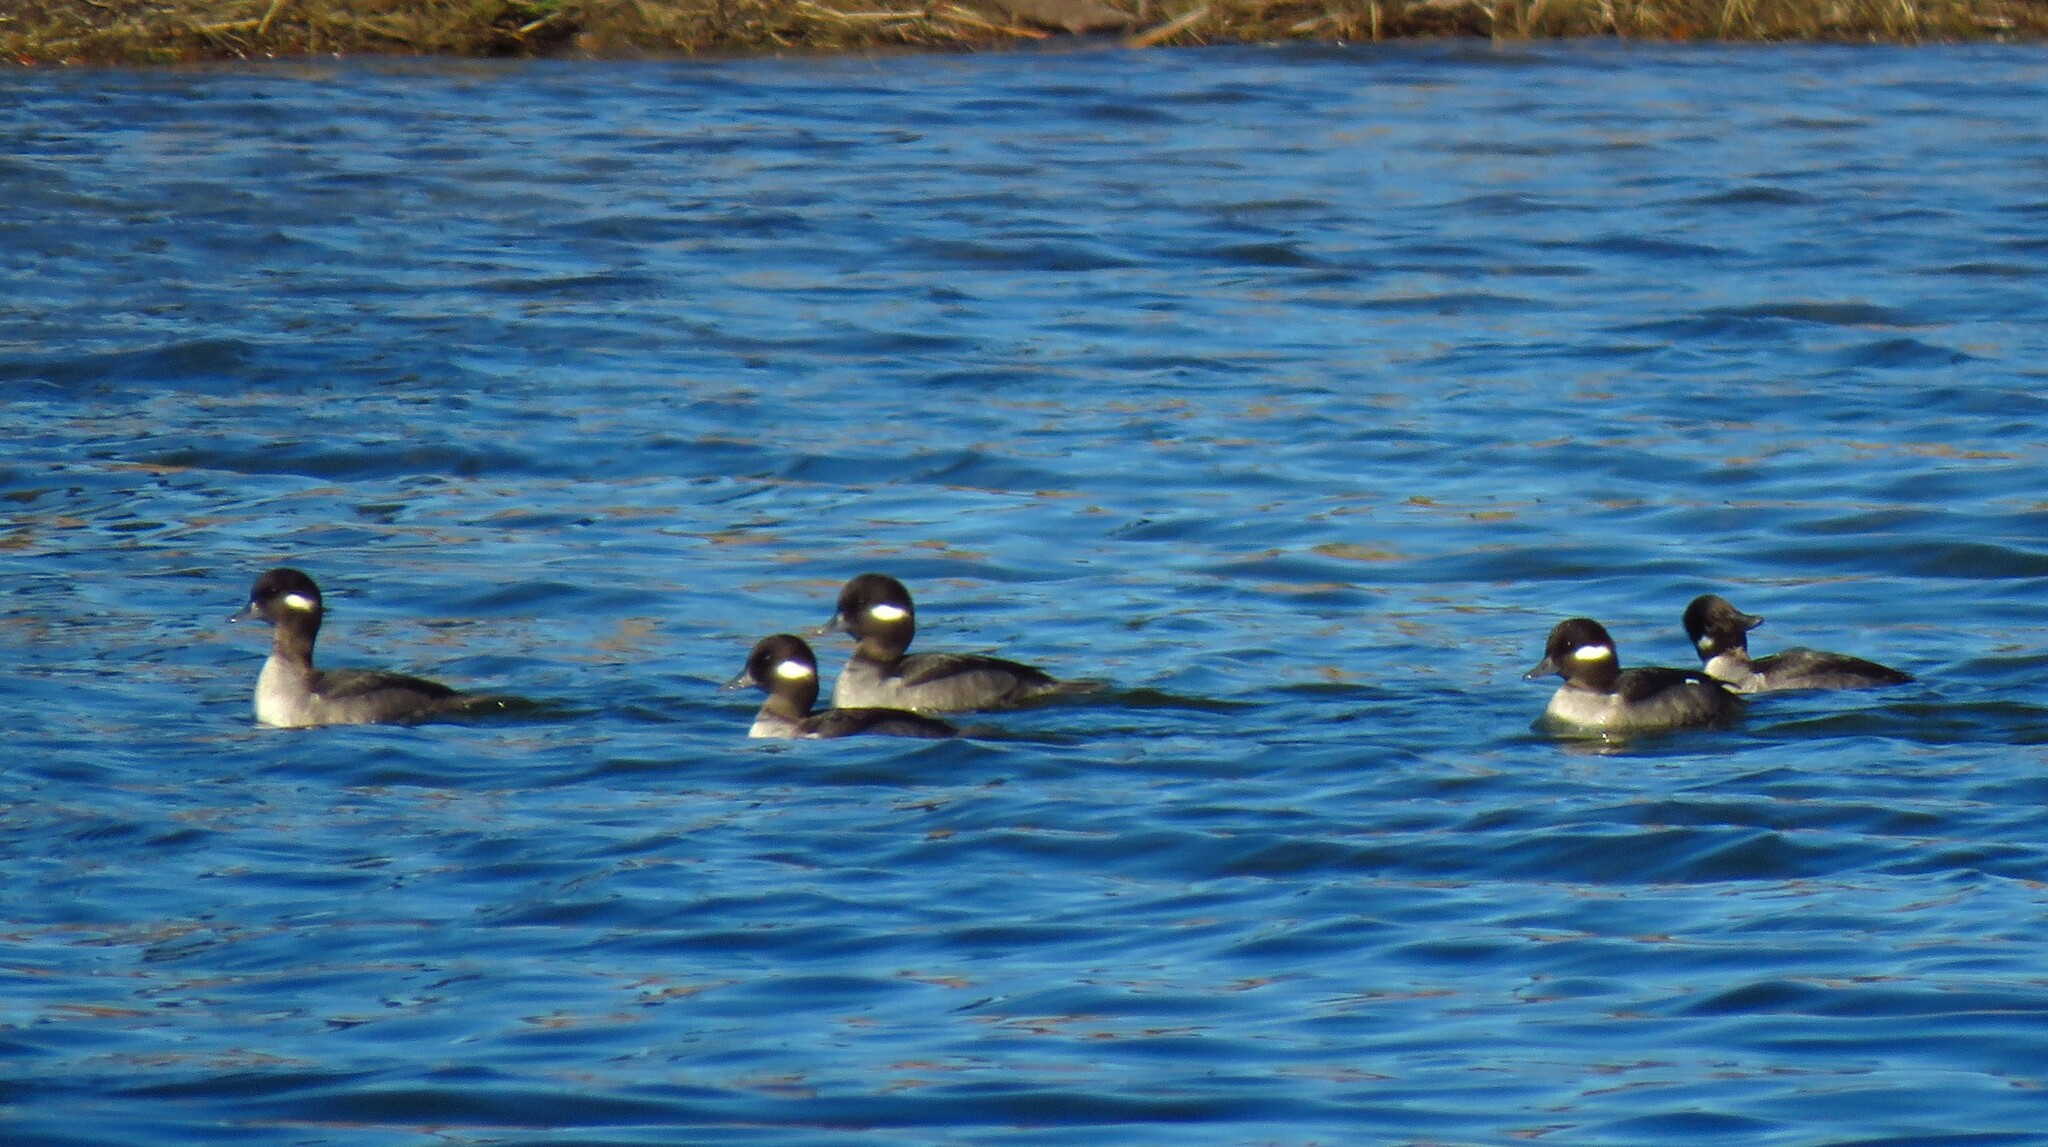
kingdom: Animalia
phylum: Chordata
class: Aves
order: Anseriformes
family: Anatidae
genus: Bucephala
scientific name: Bucephala albeola
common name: Bufflehead
